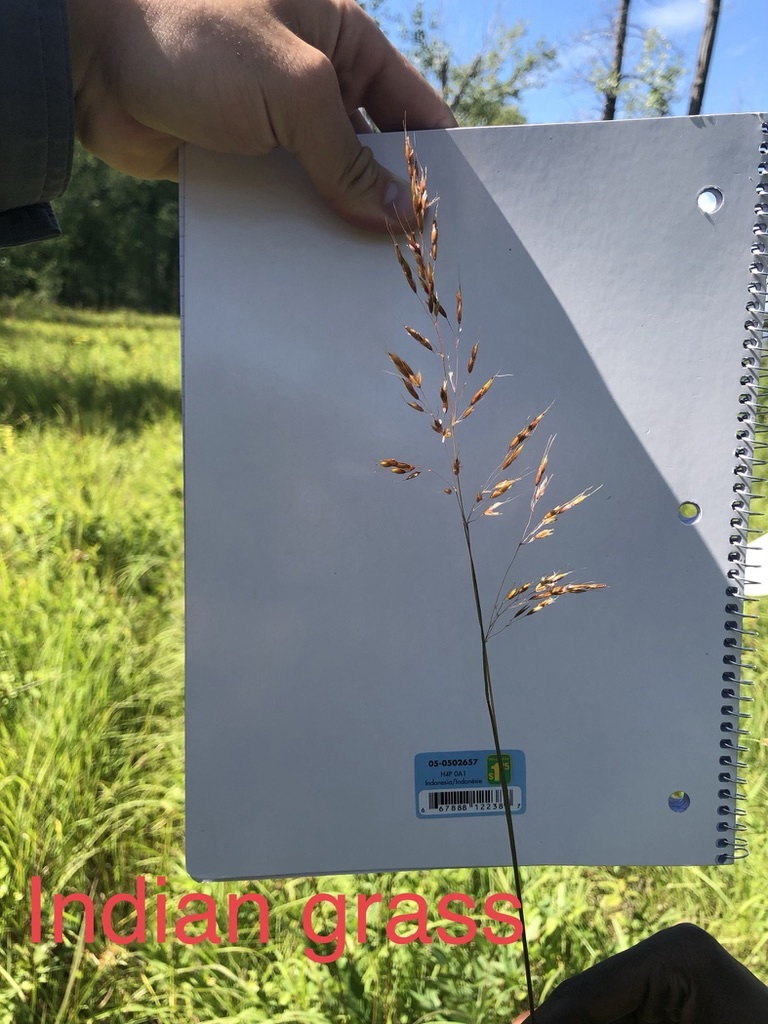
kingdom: Plantae
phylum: Tracheophyta
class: Liliopsida
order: Poales
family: Poaceae
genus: Sorghastrum
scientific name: Sorghastrum nutans
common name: Indian grass
